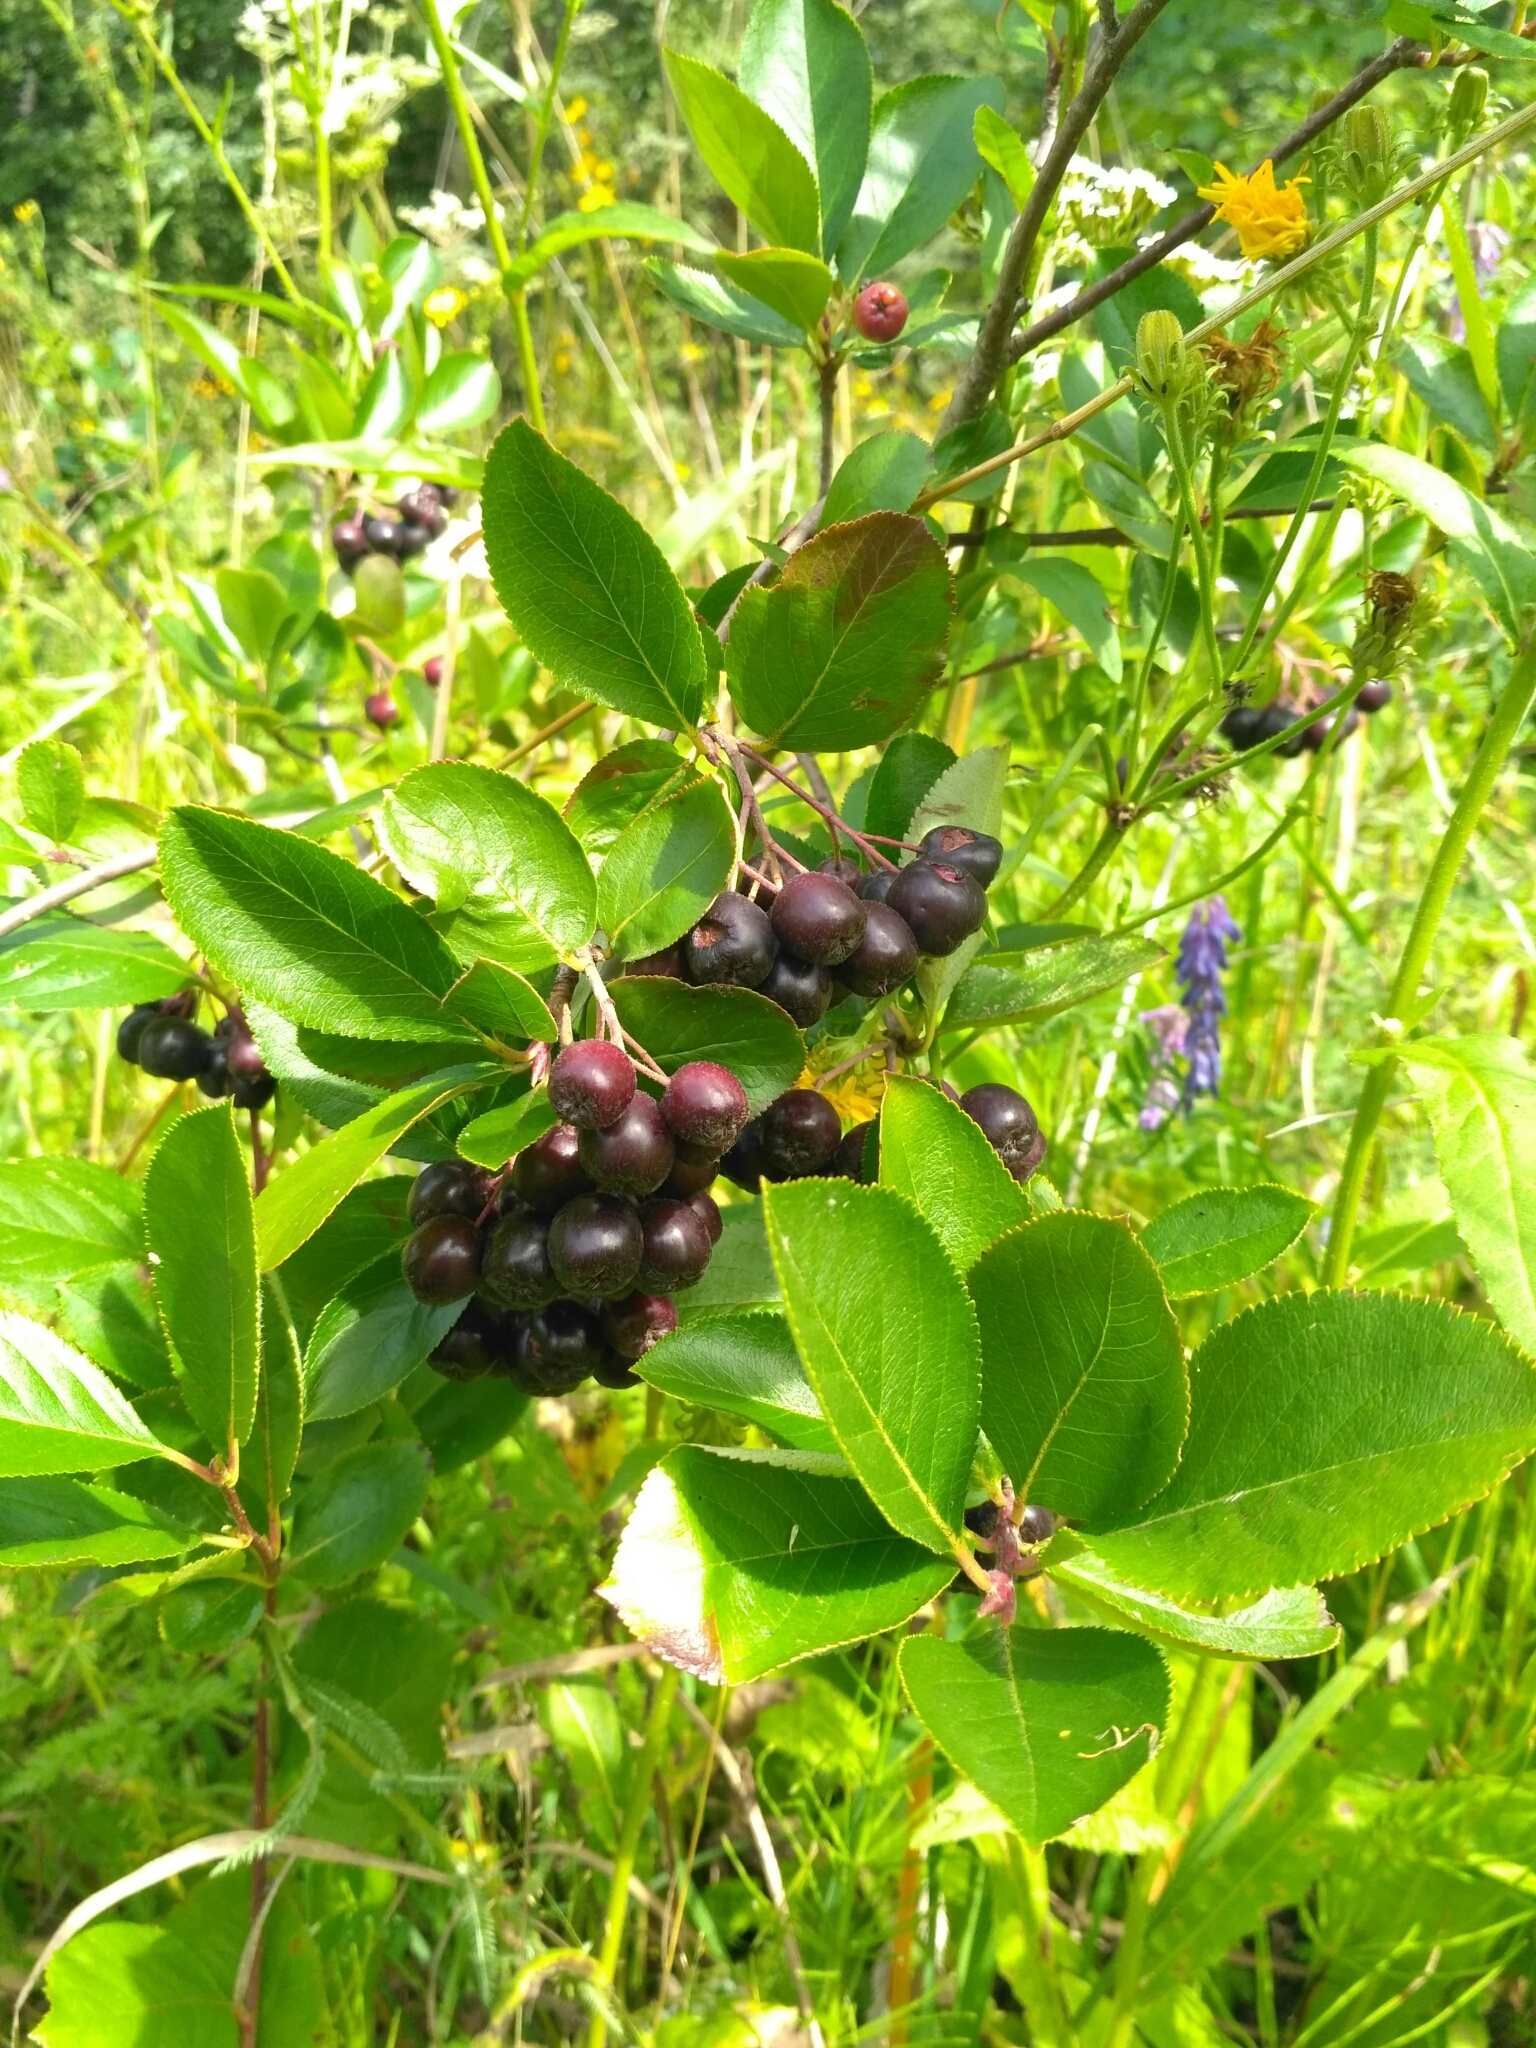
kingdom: Plantae
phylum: Tracheophyta
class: Magnoliopsida
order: Rosales
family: Rosaceae
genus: Sorbaronia
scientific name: Sorbaronia arsenii
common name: Arsène's mountain-ash
